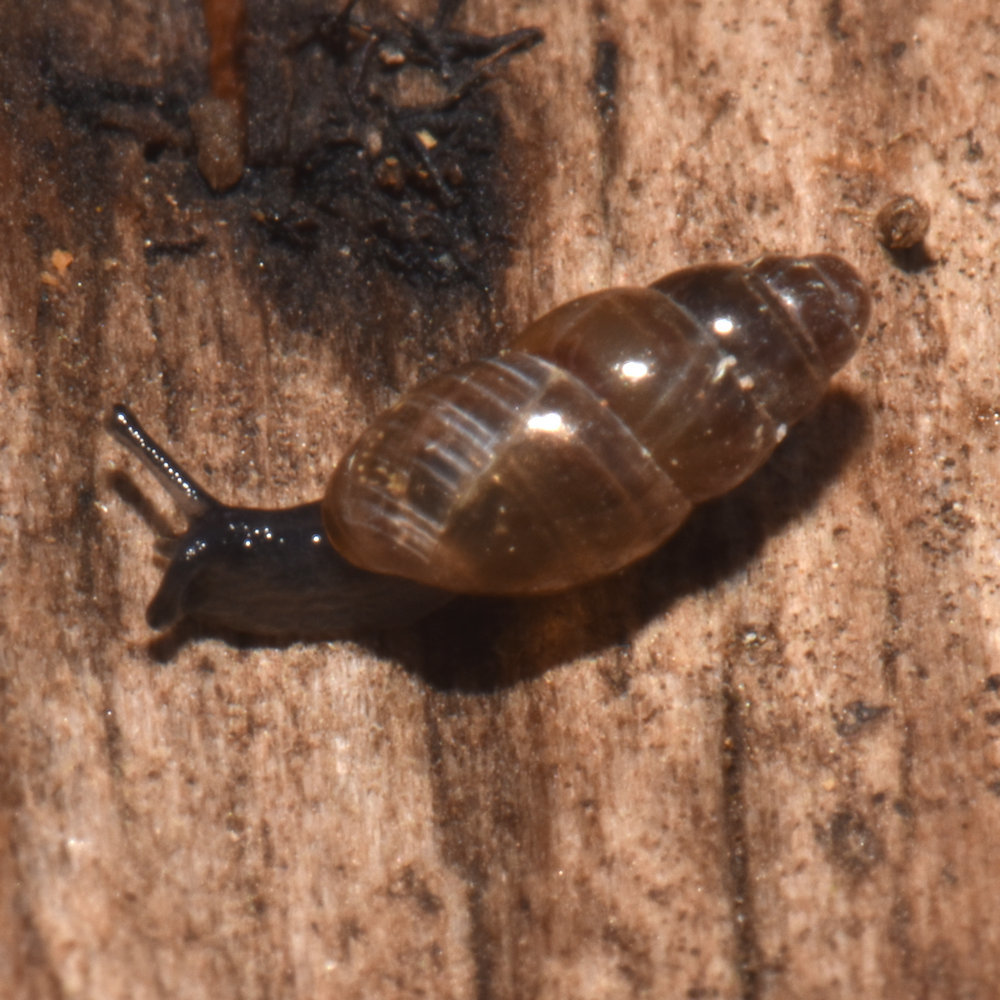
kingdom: Animalia
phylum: Mollusca
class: Gastropoda
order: Stylommatophora
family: Cochlicopidae
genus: Cochlicopa
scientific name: Cochlicopa lubrica
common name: Glossy pillar snail
